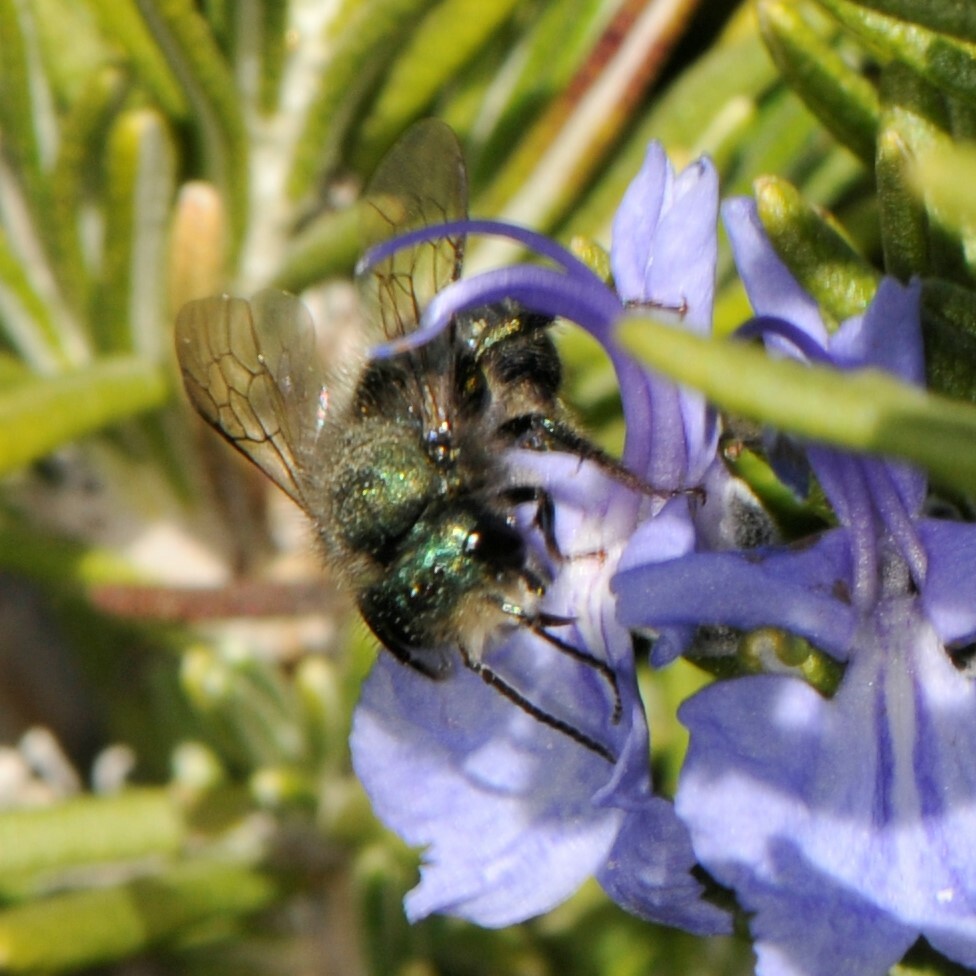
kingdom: Animalia
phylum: Arthropoda
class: Insecta
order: Hymenoptera
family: Megachilidae
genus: Osmia
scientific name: Osmia ribifloris
